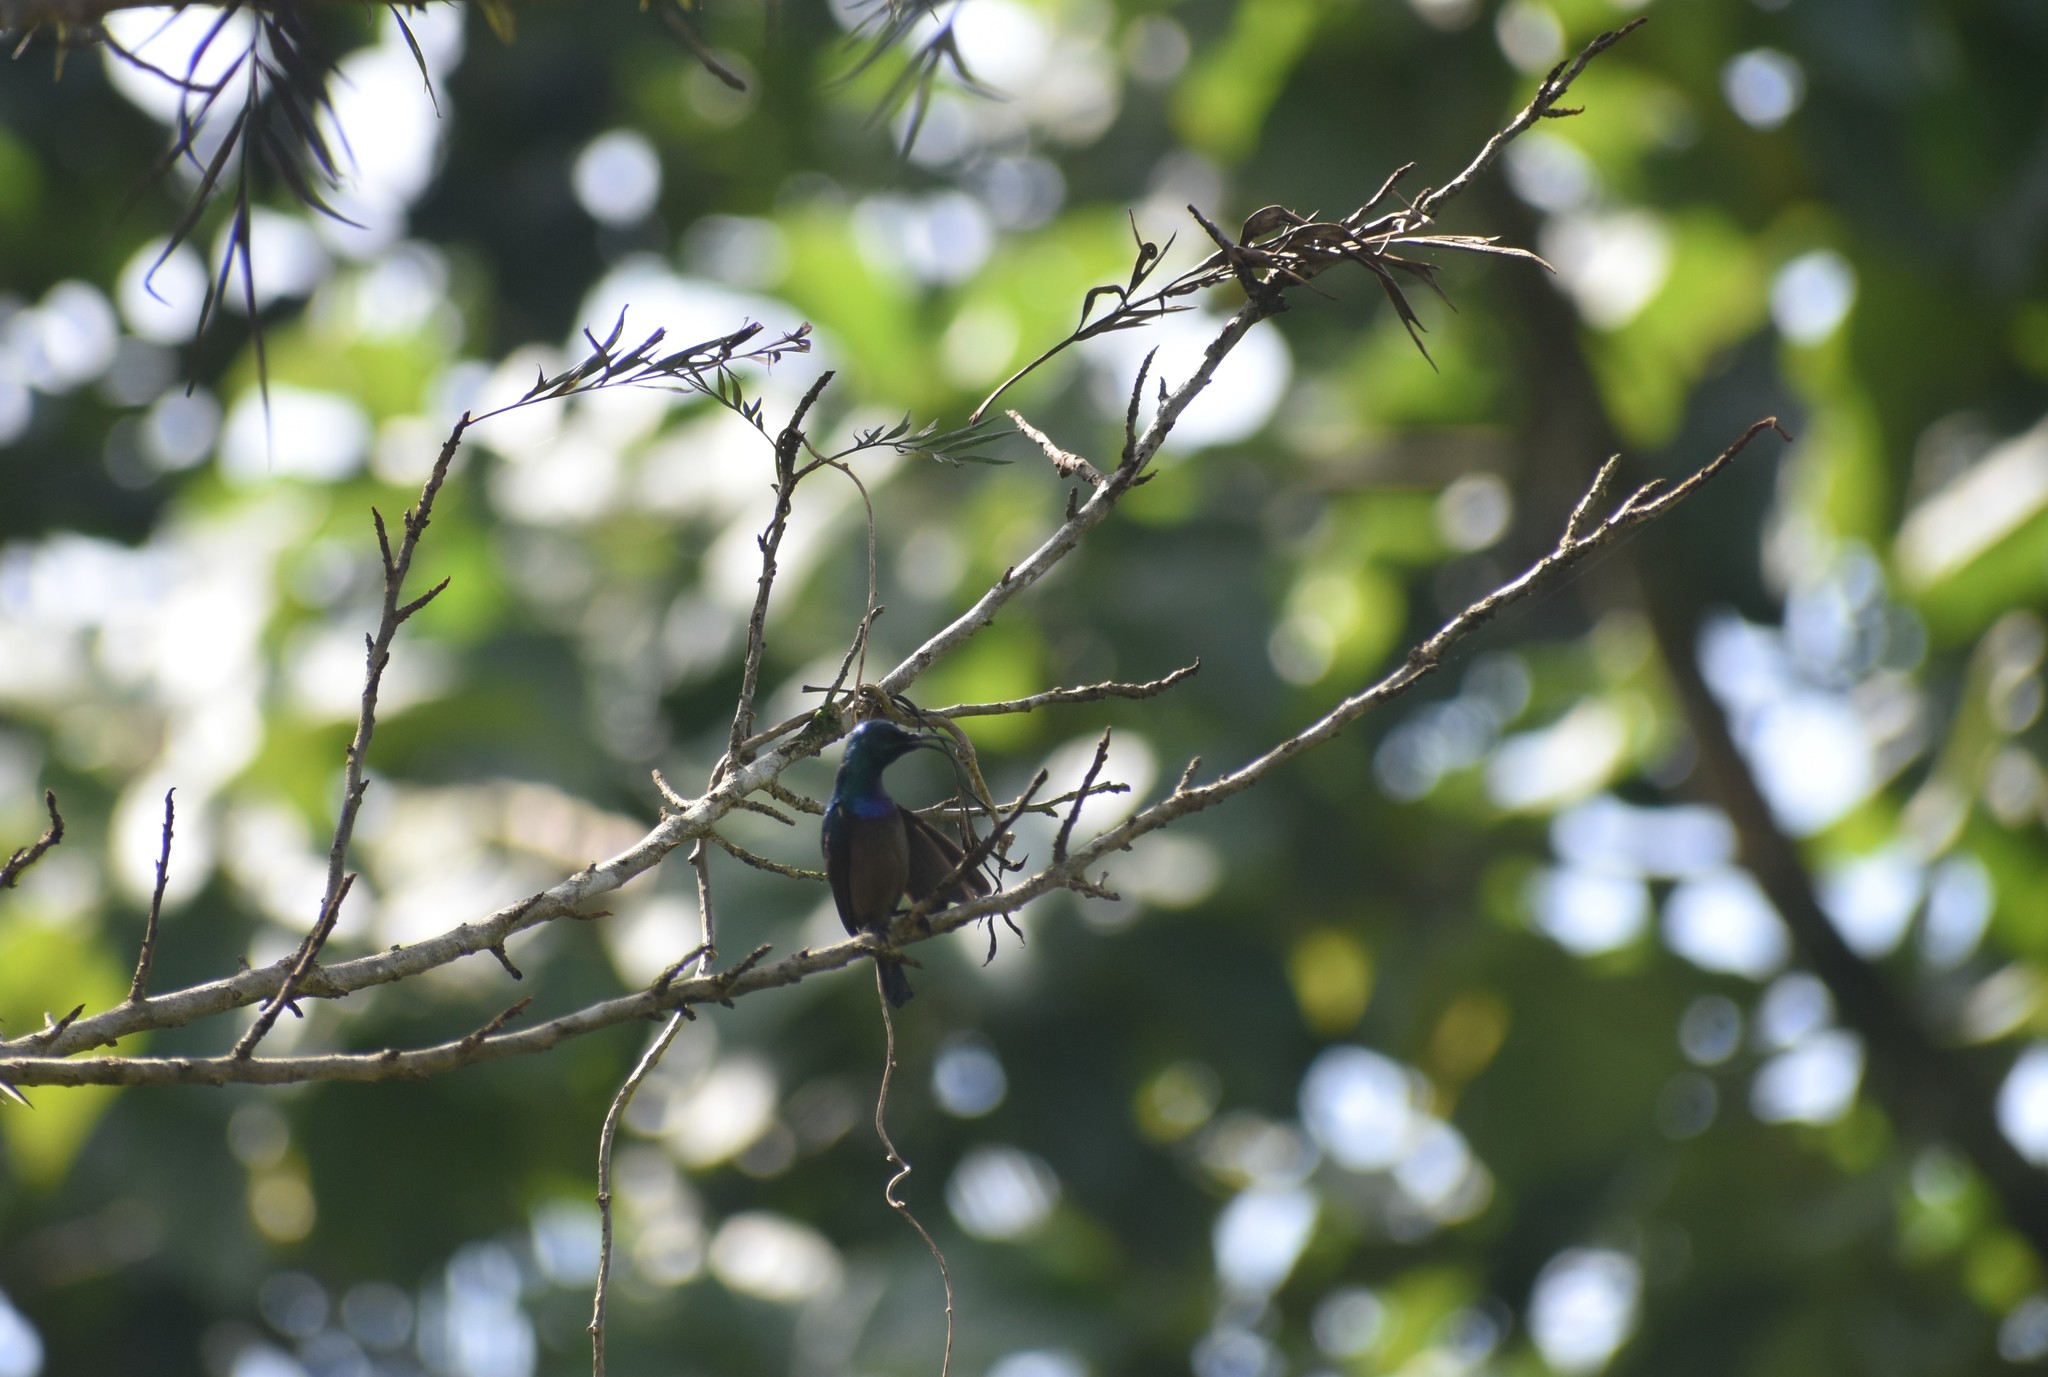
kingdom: Animalia
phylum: Chordata
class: Aves
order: Passeriformes
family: Nectariniidae
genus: Cinnyris
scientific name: Cinnyris lotenius
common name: Loten's sunbird
